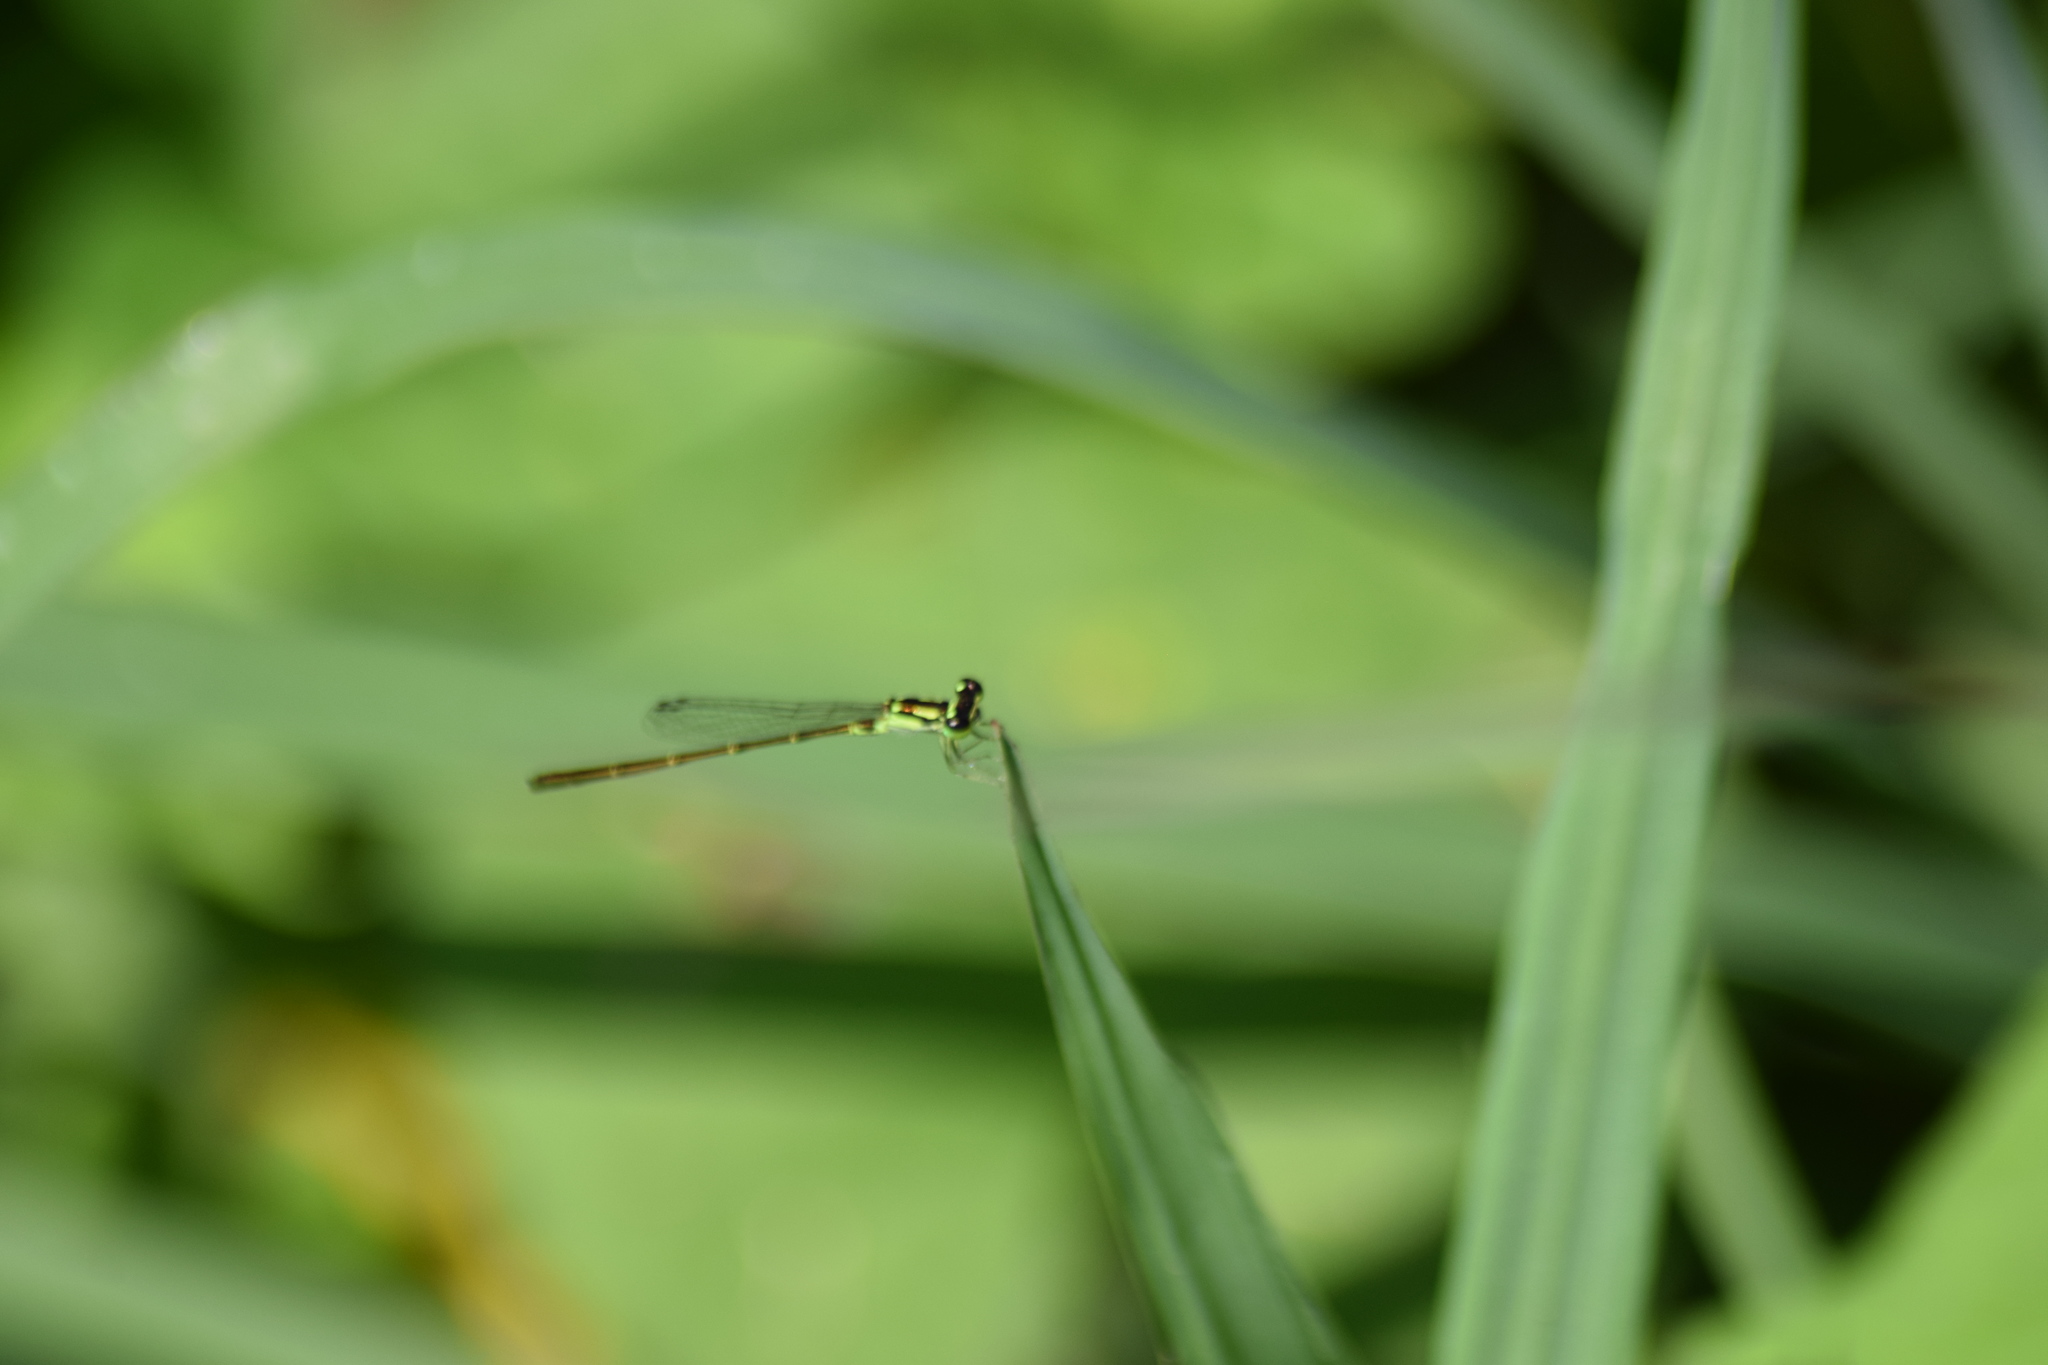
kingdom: Animalia
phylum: Arthropoda
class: Insecta
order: Odonata
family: Coenagrionidae
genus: Ischnura
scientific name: Ischnura posita
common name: Fragile forktail
